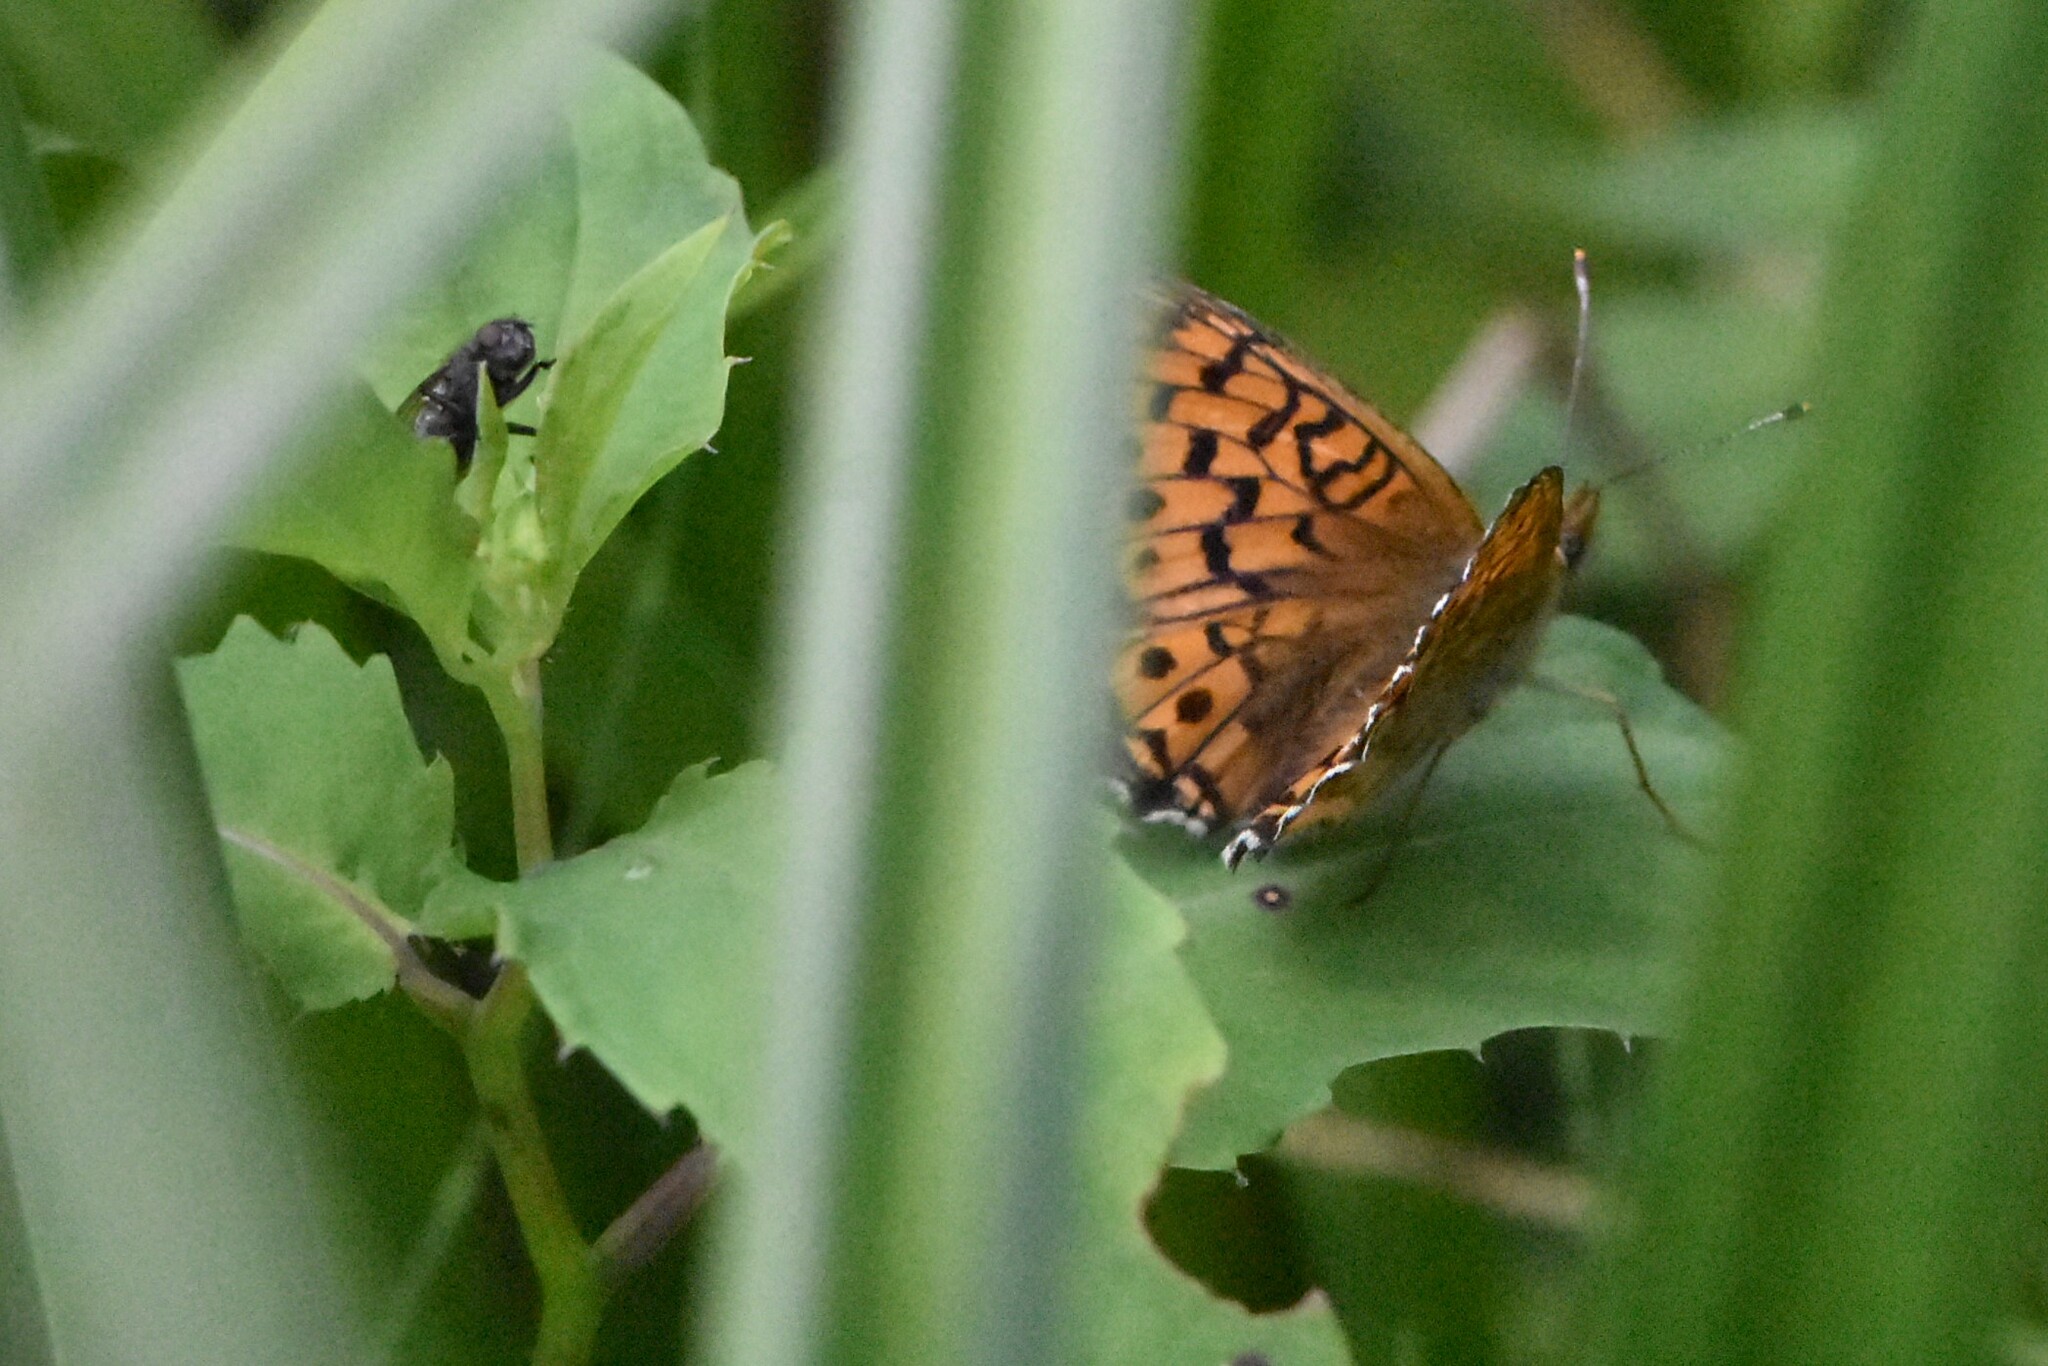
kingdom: Animalia
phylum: Arthropoda
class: Insecta
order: Lepidoptera
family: Nymphalidae
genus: Brenthis
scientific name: Brenthis ino
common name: Lesser marbled fritillary
